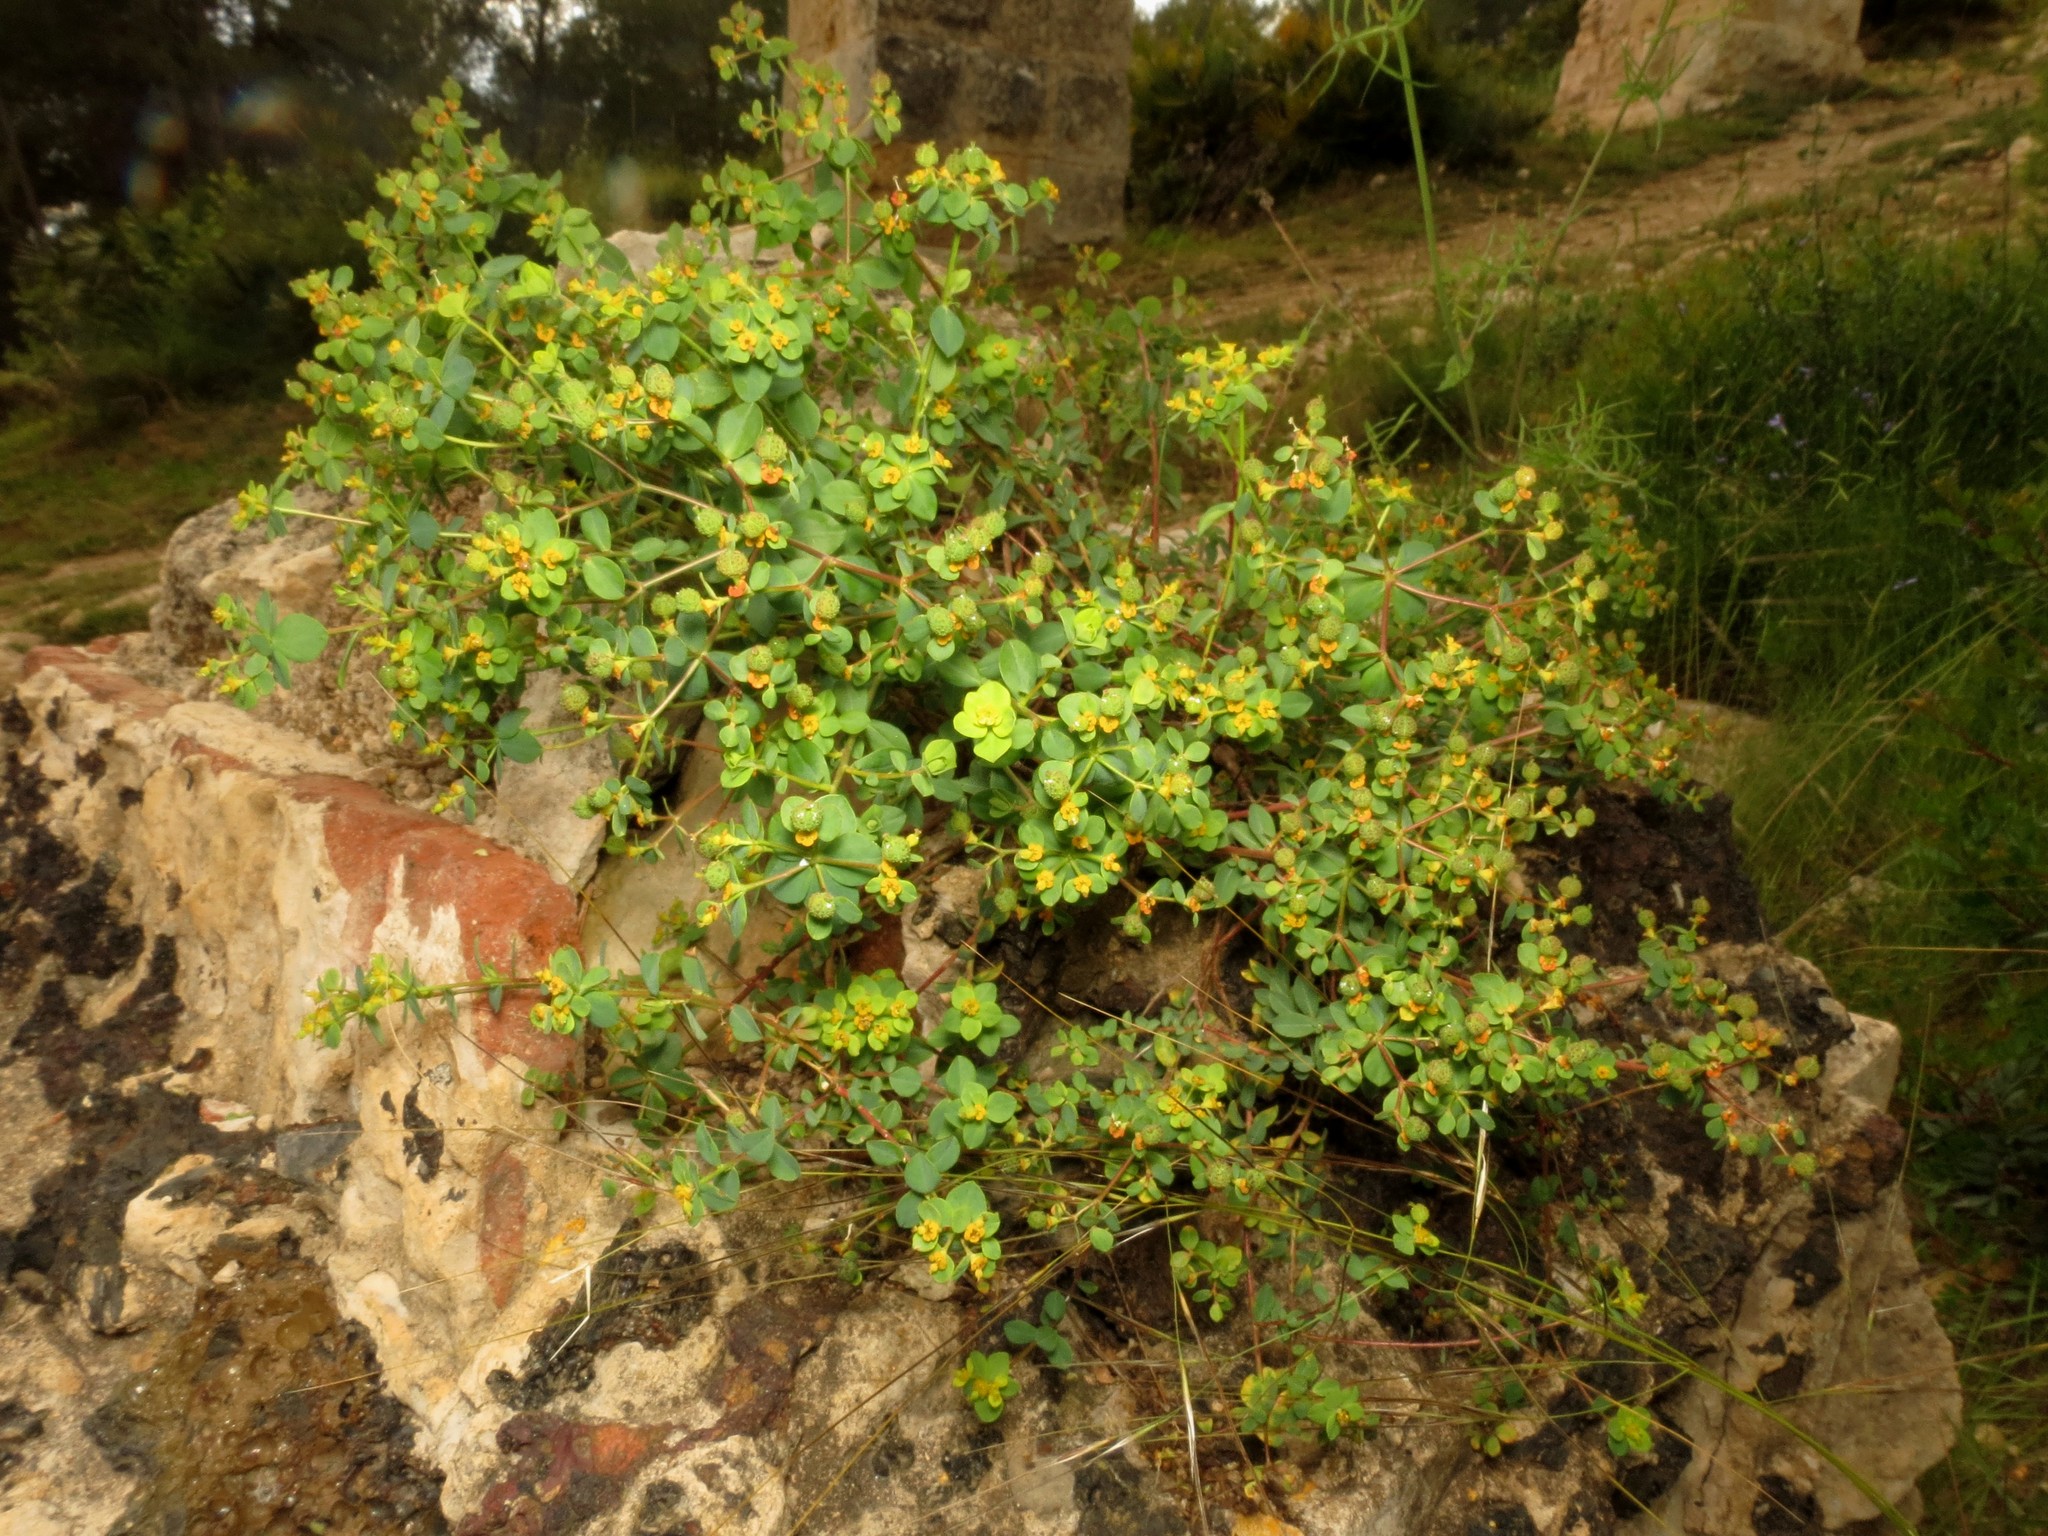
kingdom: Plantae
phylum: Tracheophyta
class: Magnoliopsida
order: Malpighiales
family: Euphorbiaceae
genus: Euphorbia
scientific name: Euphorbia flavicoma
